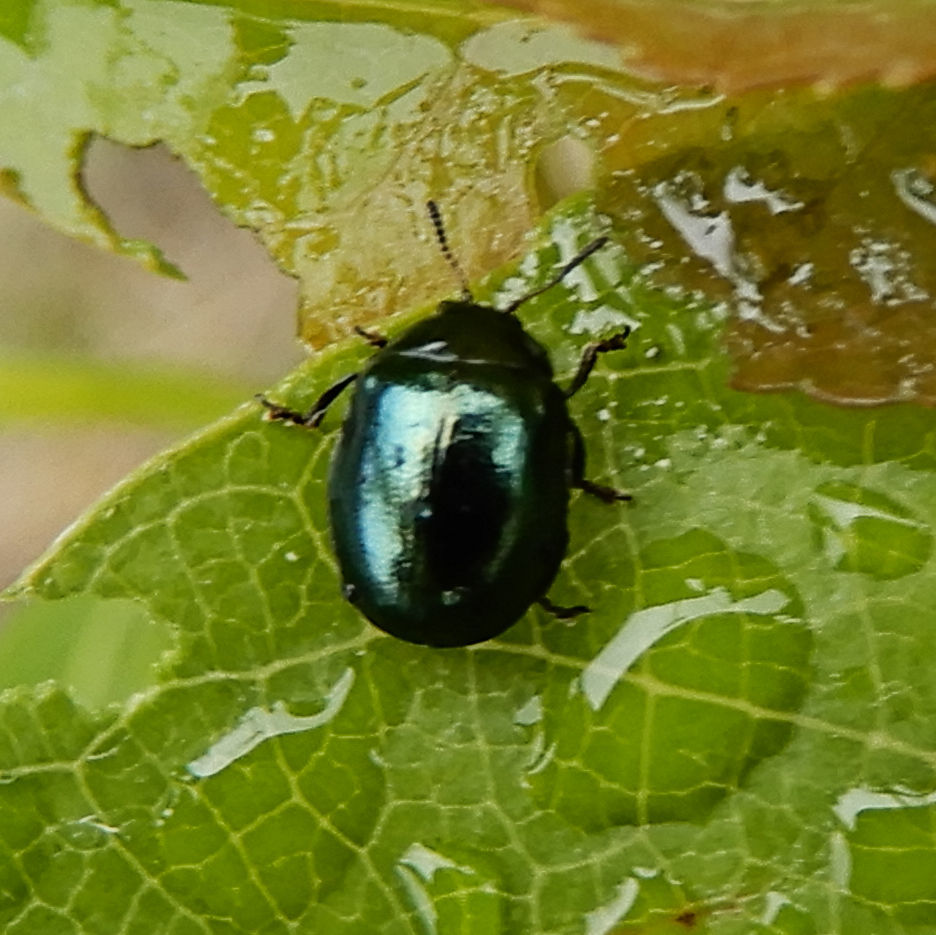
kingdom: Animalia
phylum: Arthropoda
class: Insecta
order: Coleoptera
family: Chrysomelidae
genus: Plagiodera
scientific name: Plagiodera versicolora
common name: Imported willow leaf beetle
